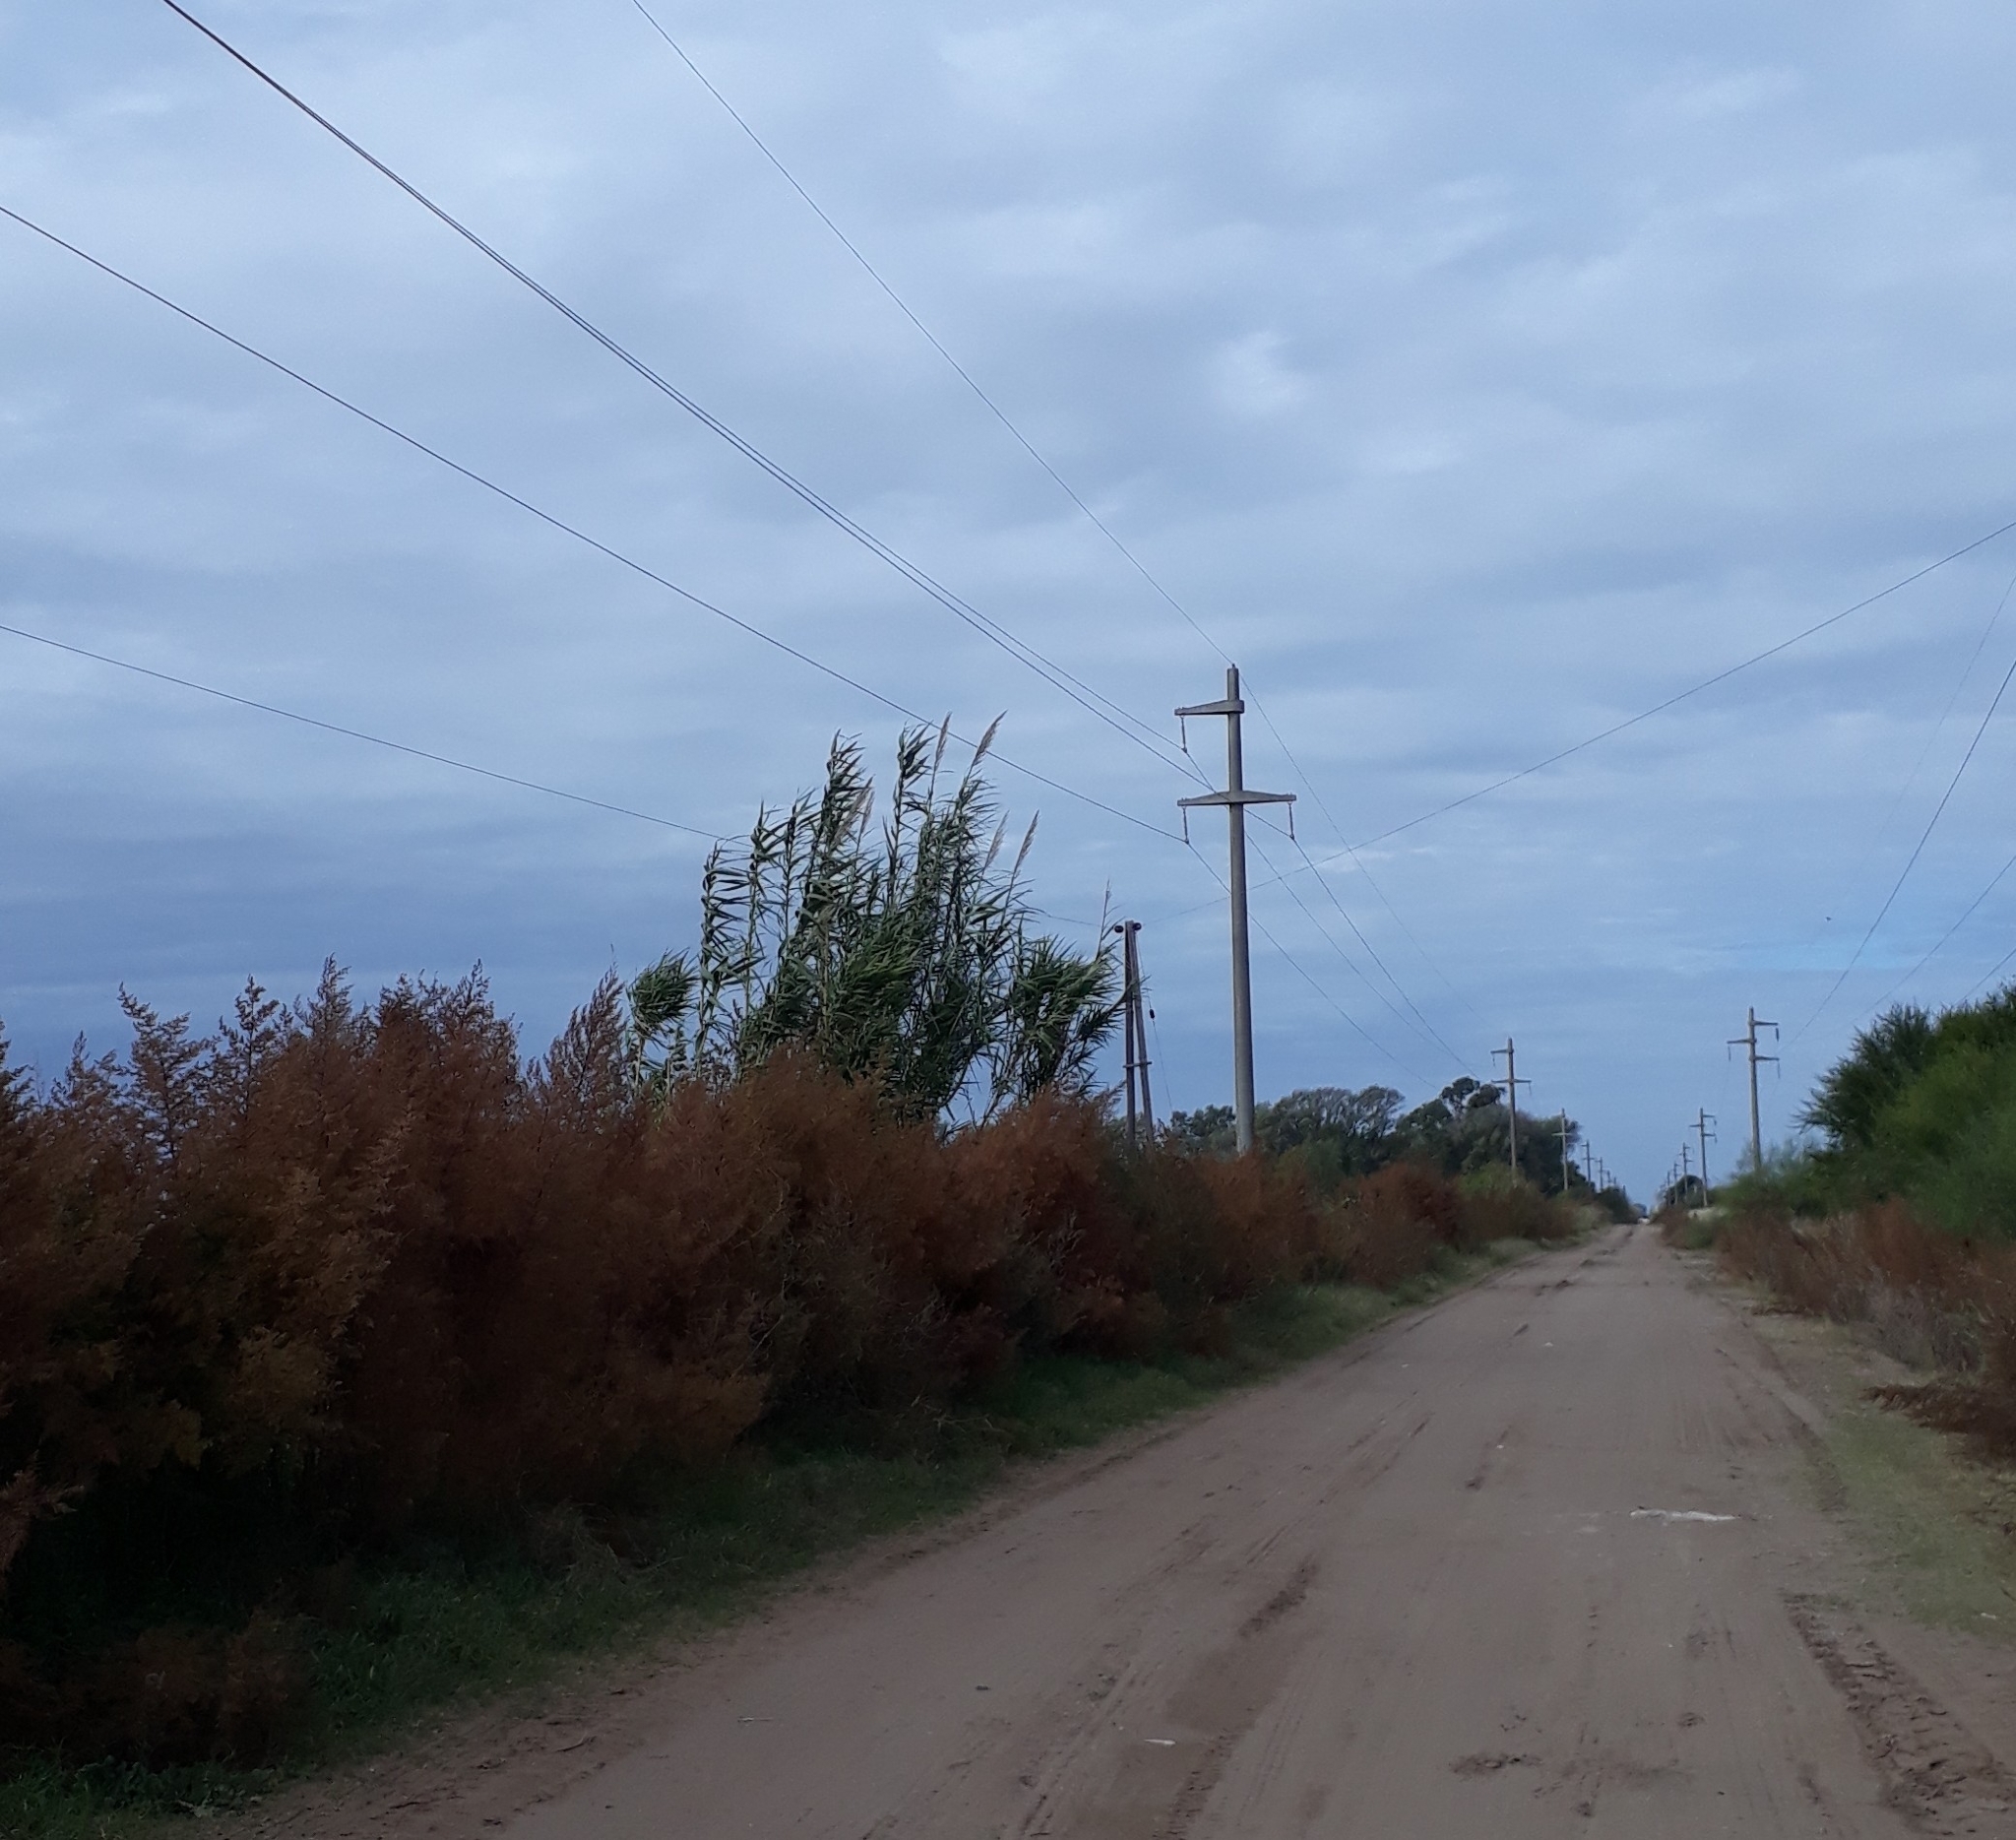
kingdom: Plantae
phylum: Tracheophyta
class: Liliopsida
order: Poales
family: Poaceae
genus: Arundo
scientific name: Arundo donax
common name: Giant reed
